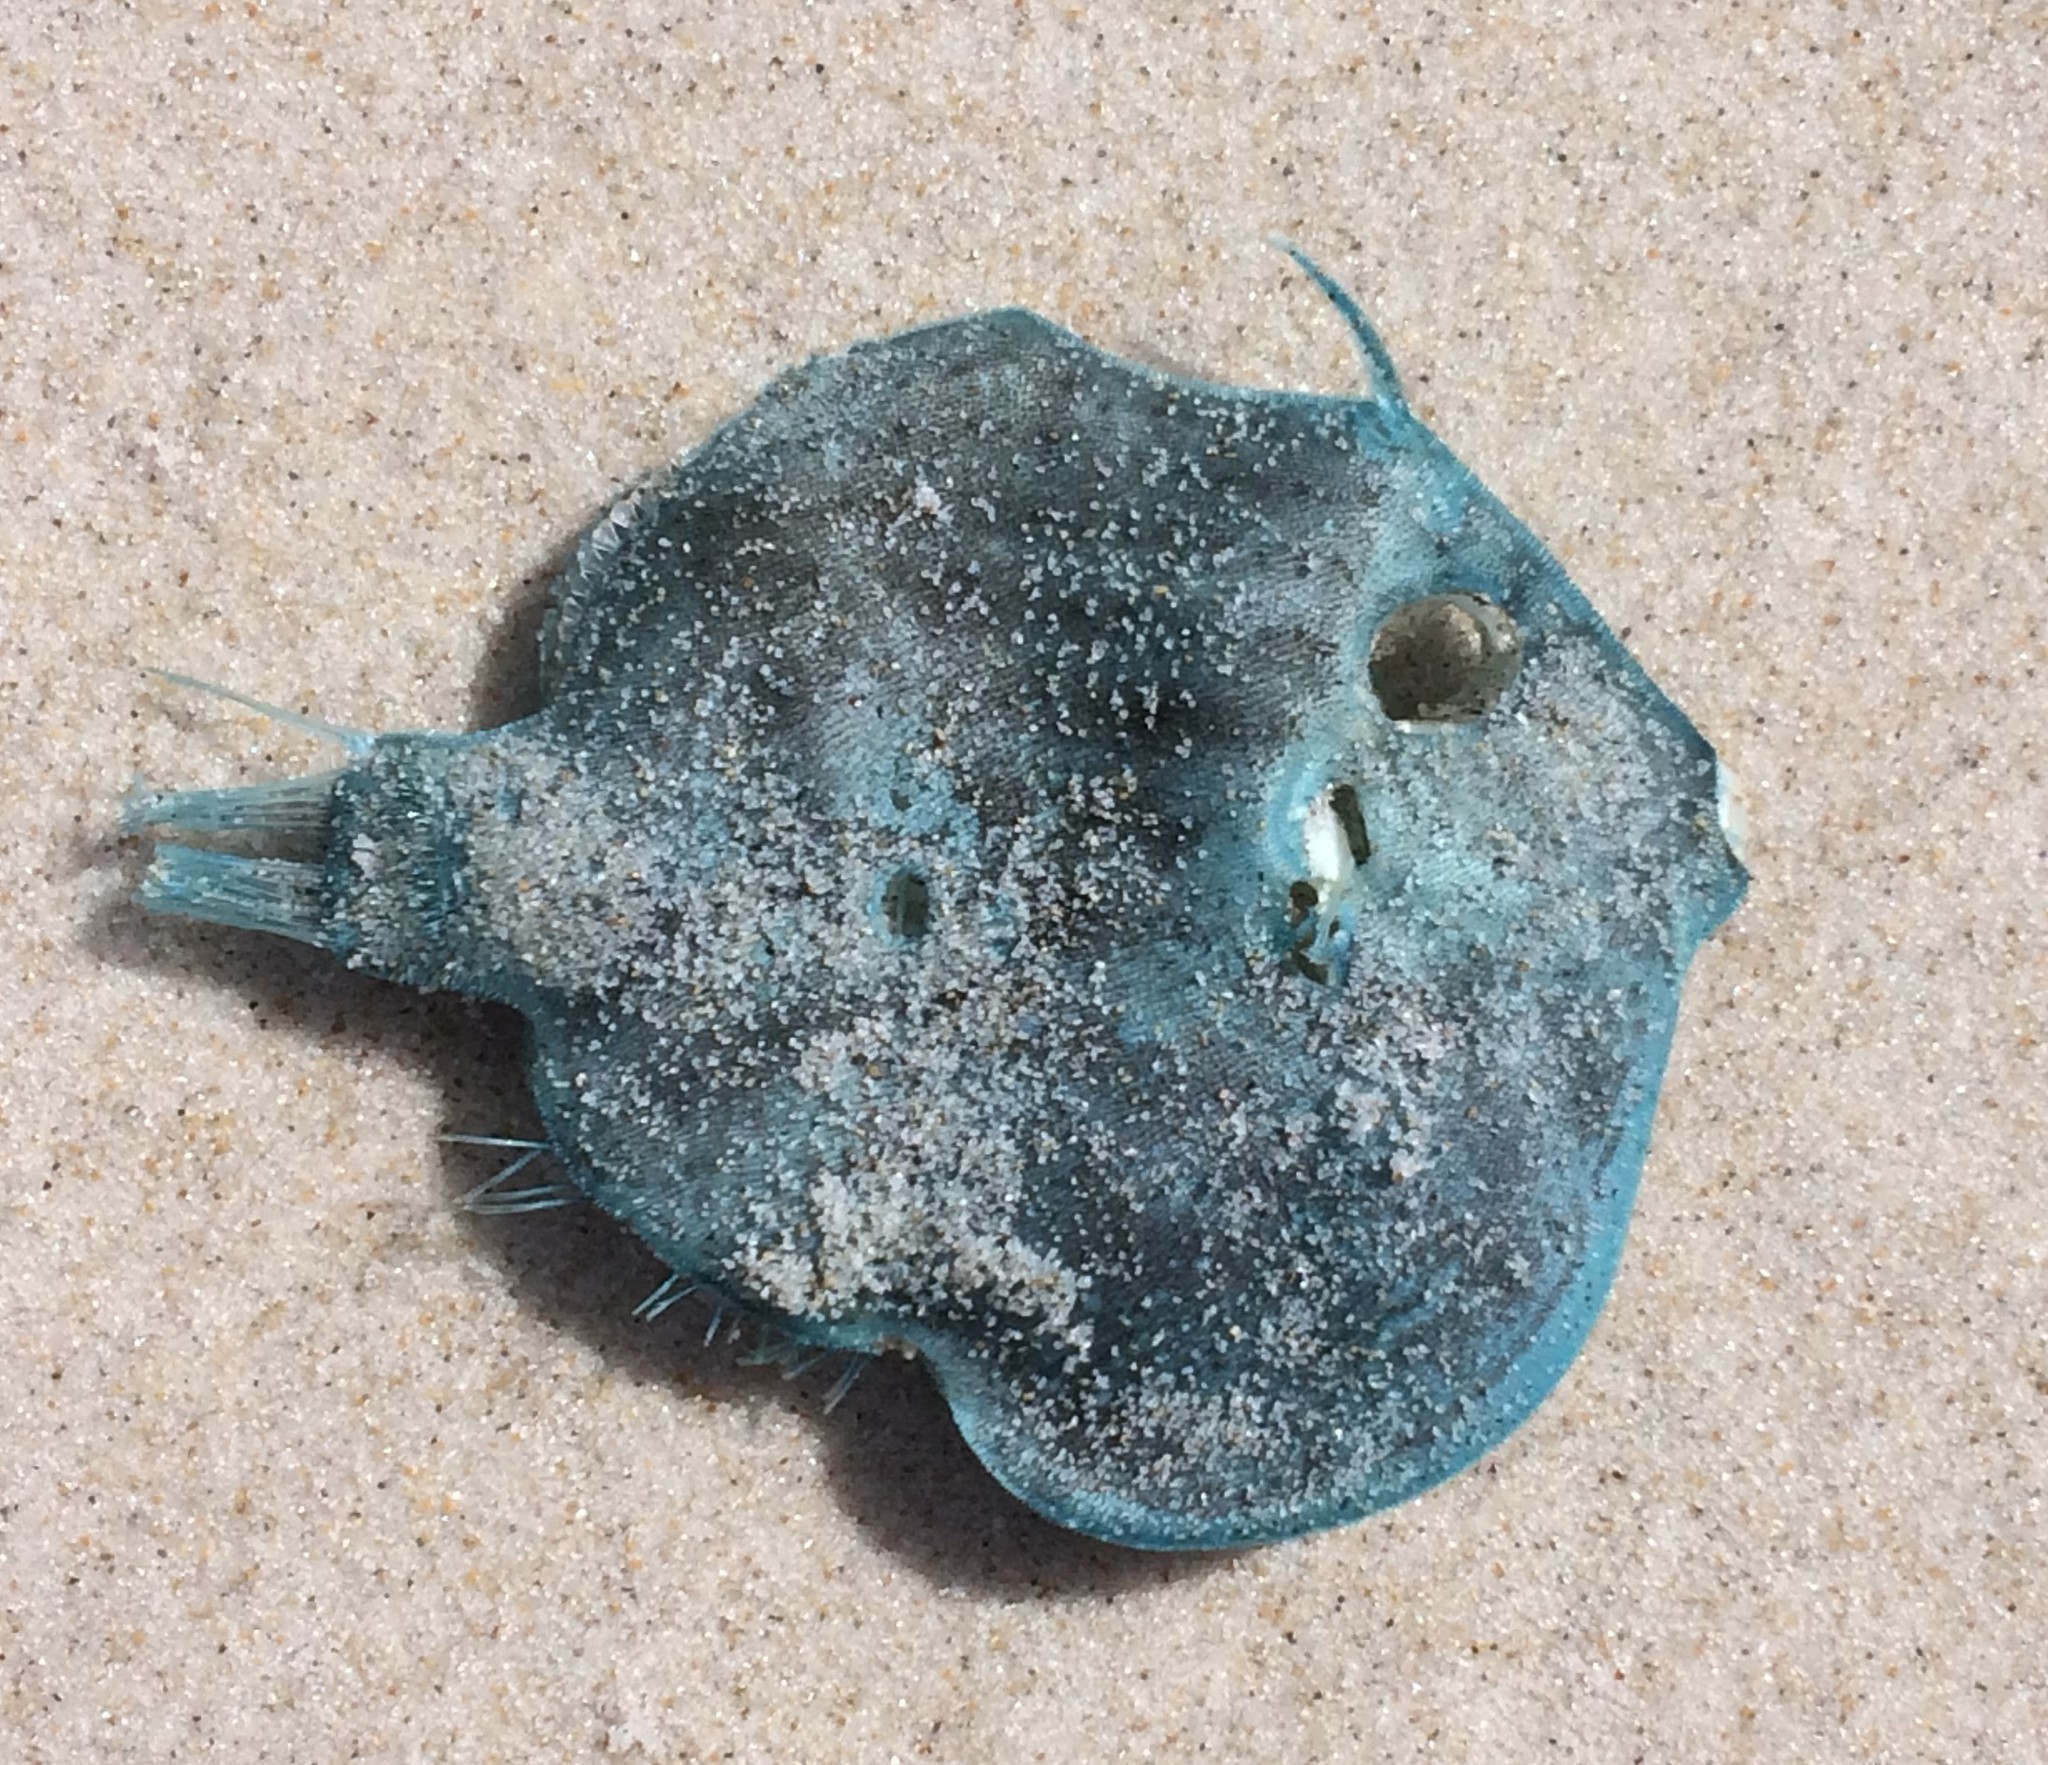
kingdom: Animalia
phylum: Chordata
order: Tetraodontiformes
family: Monacanthidae
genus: Brachaluteres
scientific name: Brachaluteres jacksonianus
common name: Pigmy leatherjacket
